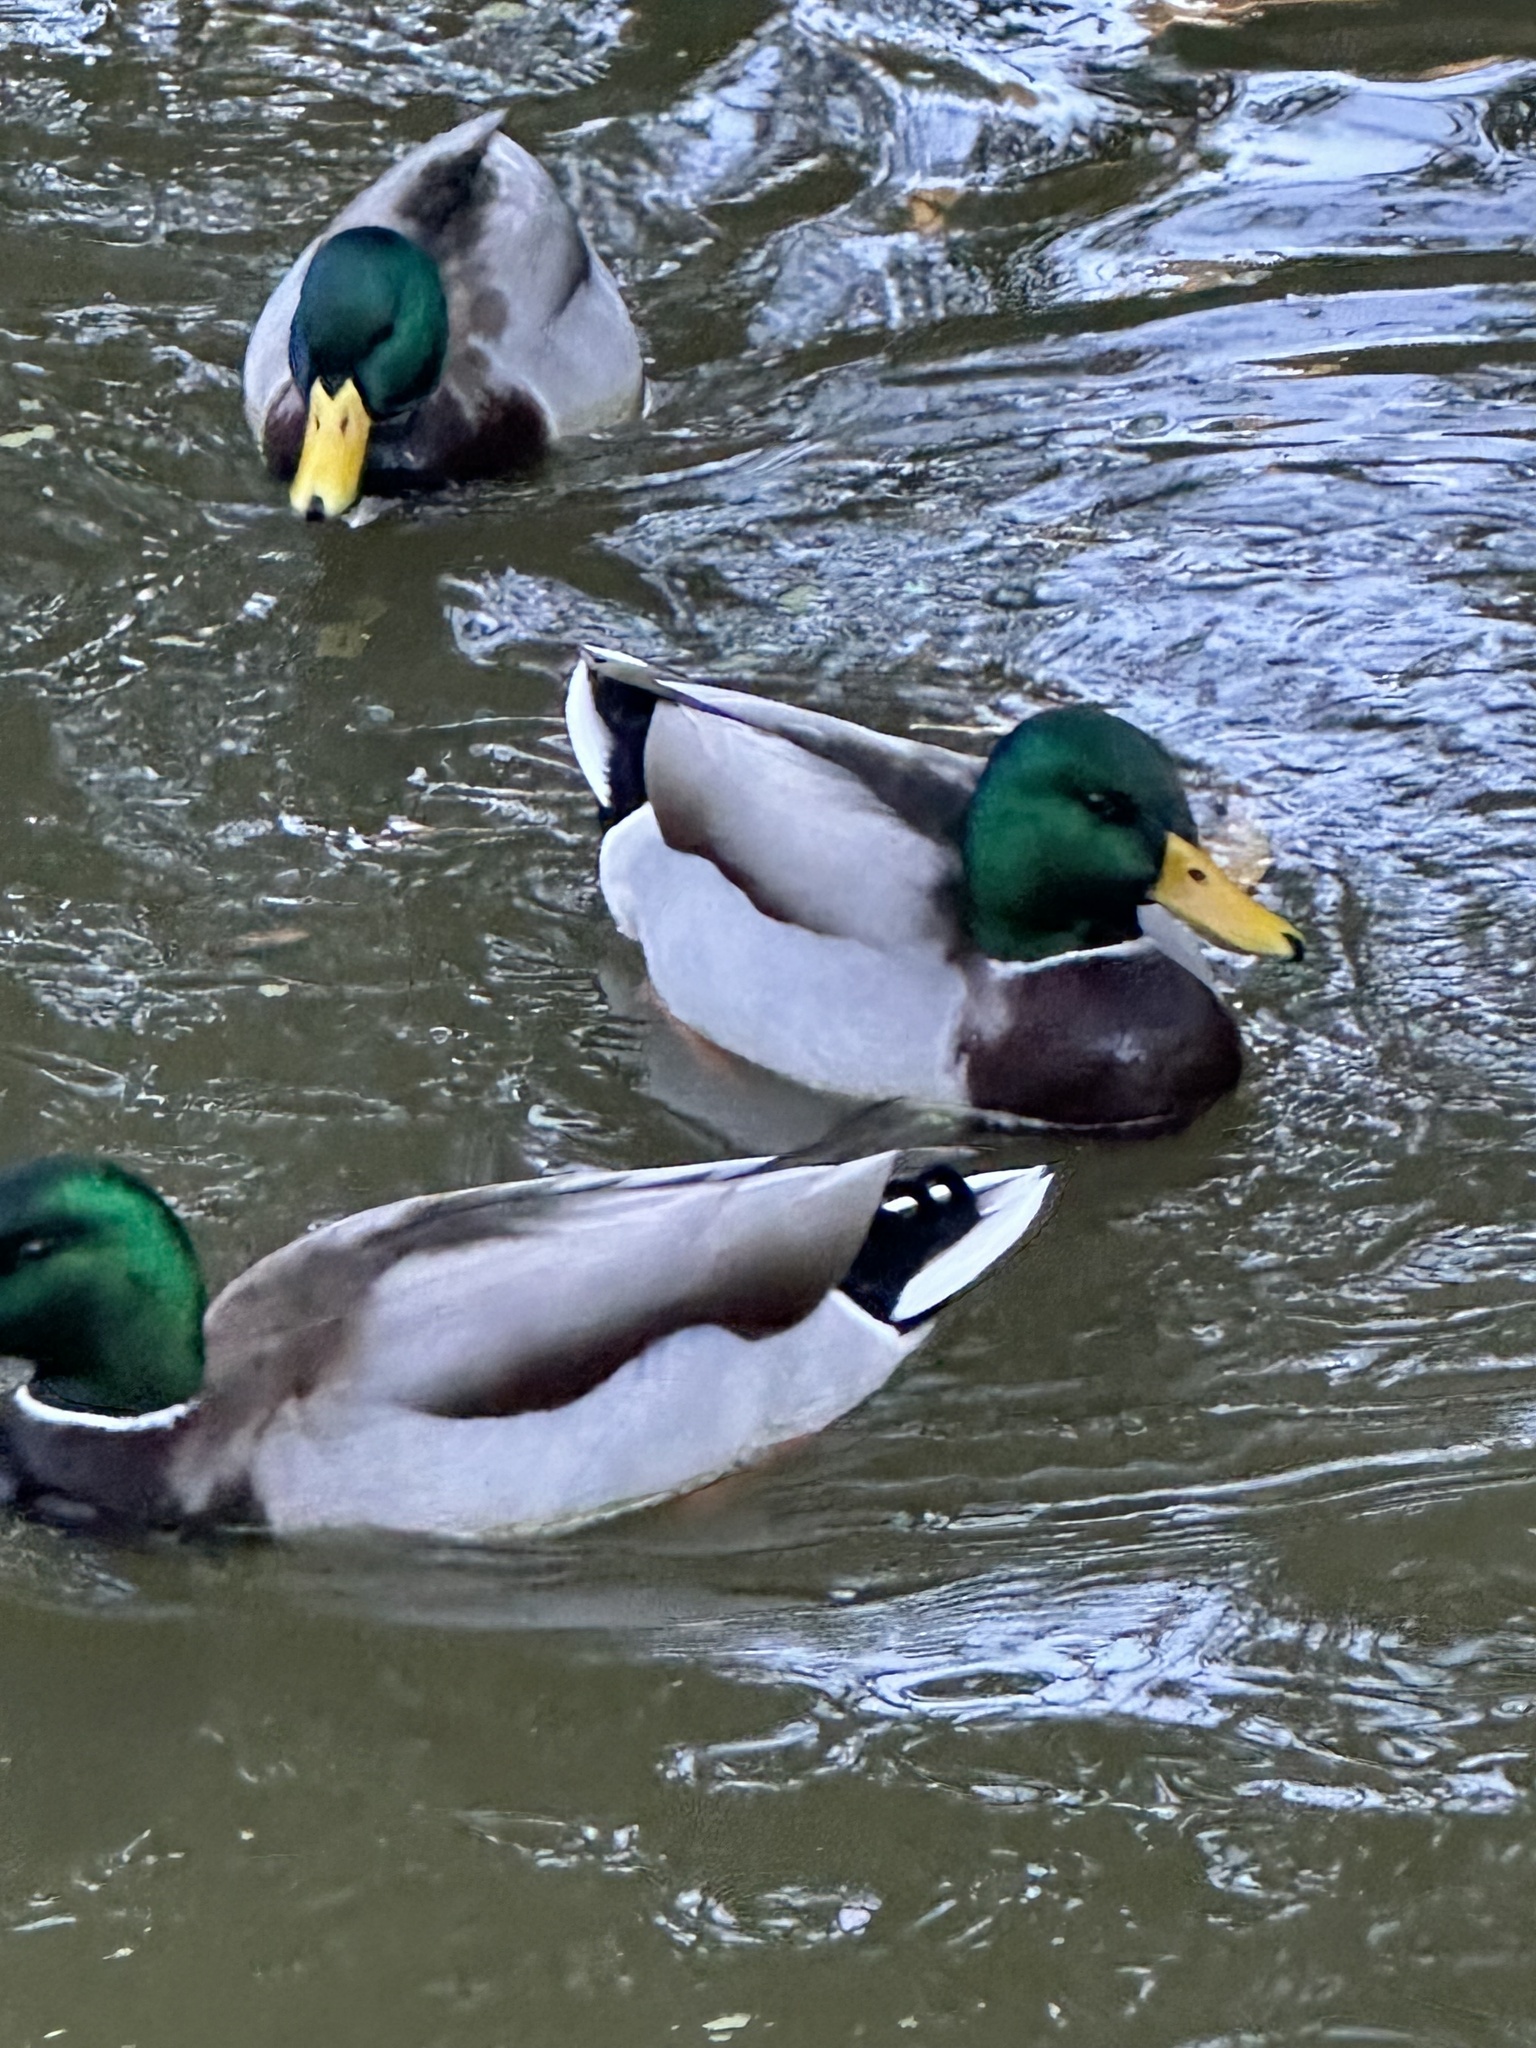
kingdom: Animalia
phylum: Chordata
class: Aves
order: Anseriformes
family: Anatidae
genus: Anas
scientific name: Anas platyrhynchos
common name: Mallard
